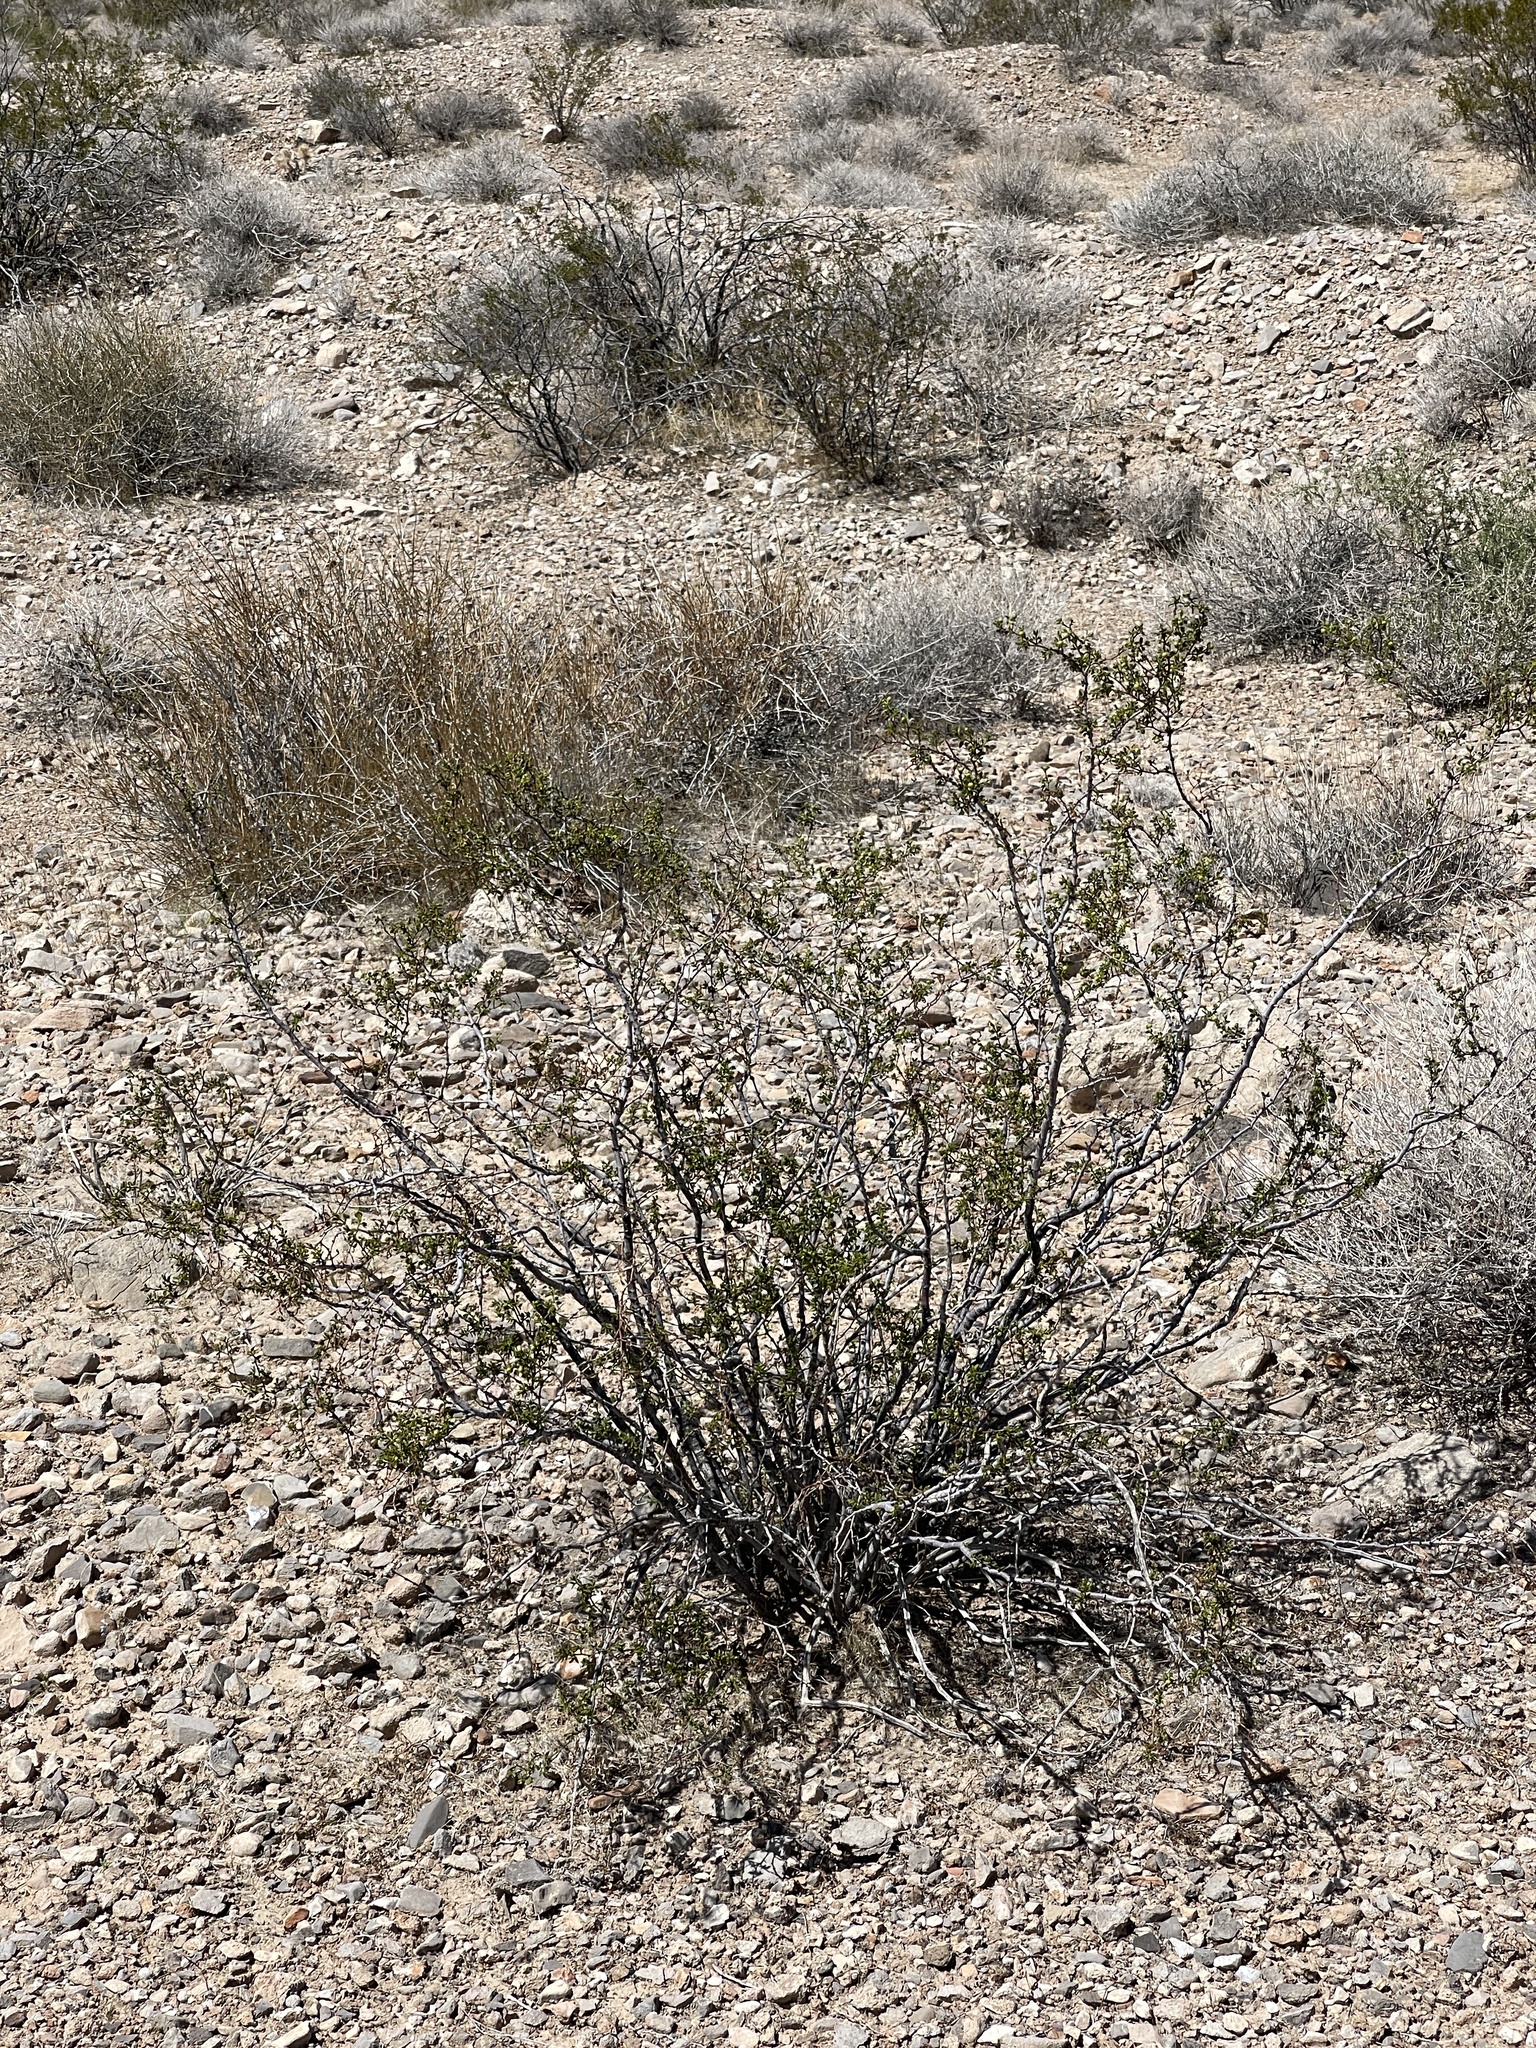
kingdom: Plantae
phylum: Tracheophyta
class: Magnoliopsida
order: Zygophyllales
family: Zygophyllaceae
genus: Larrea
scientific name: Larrea tridentata
